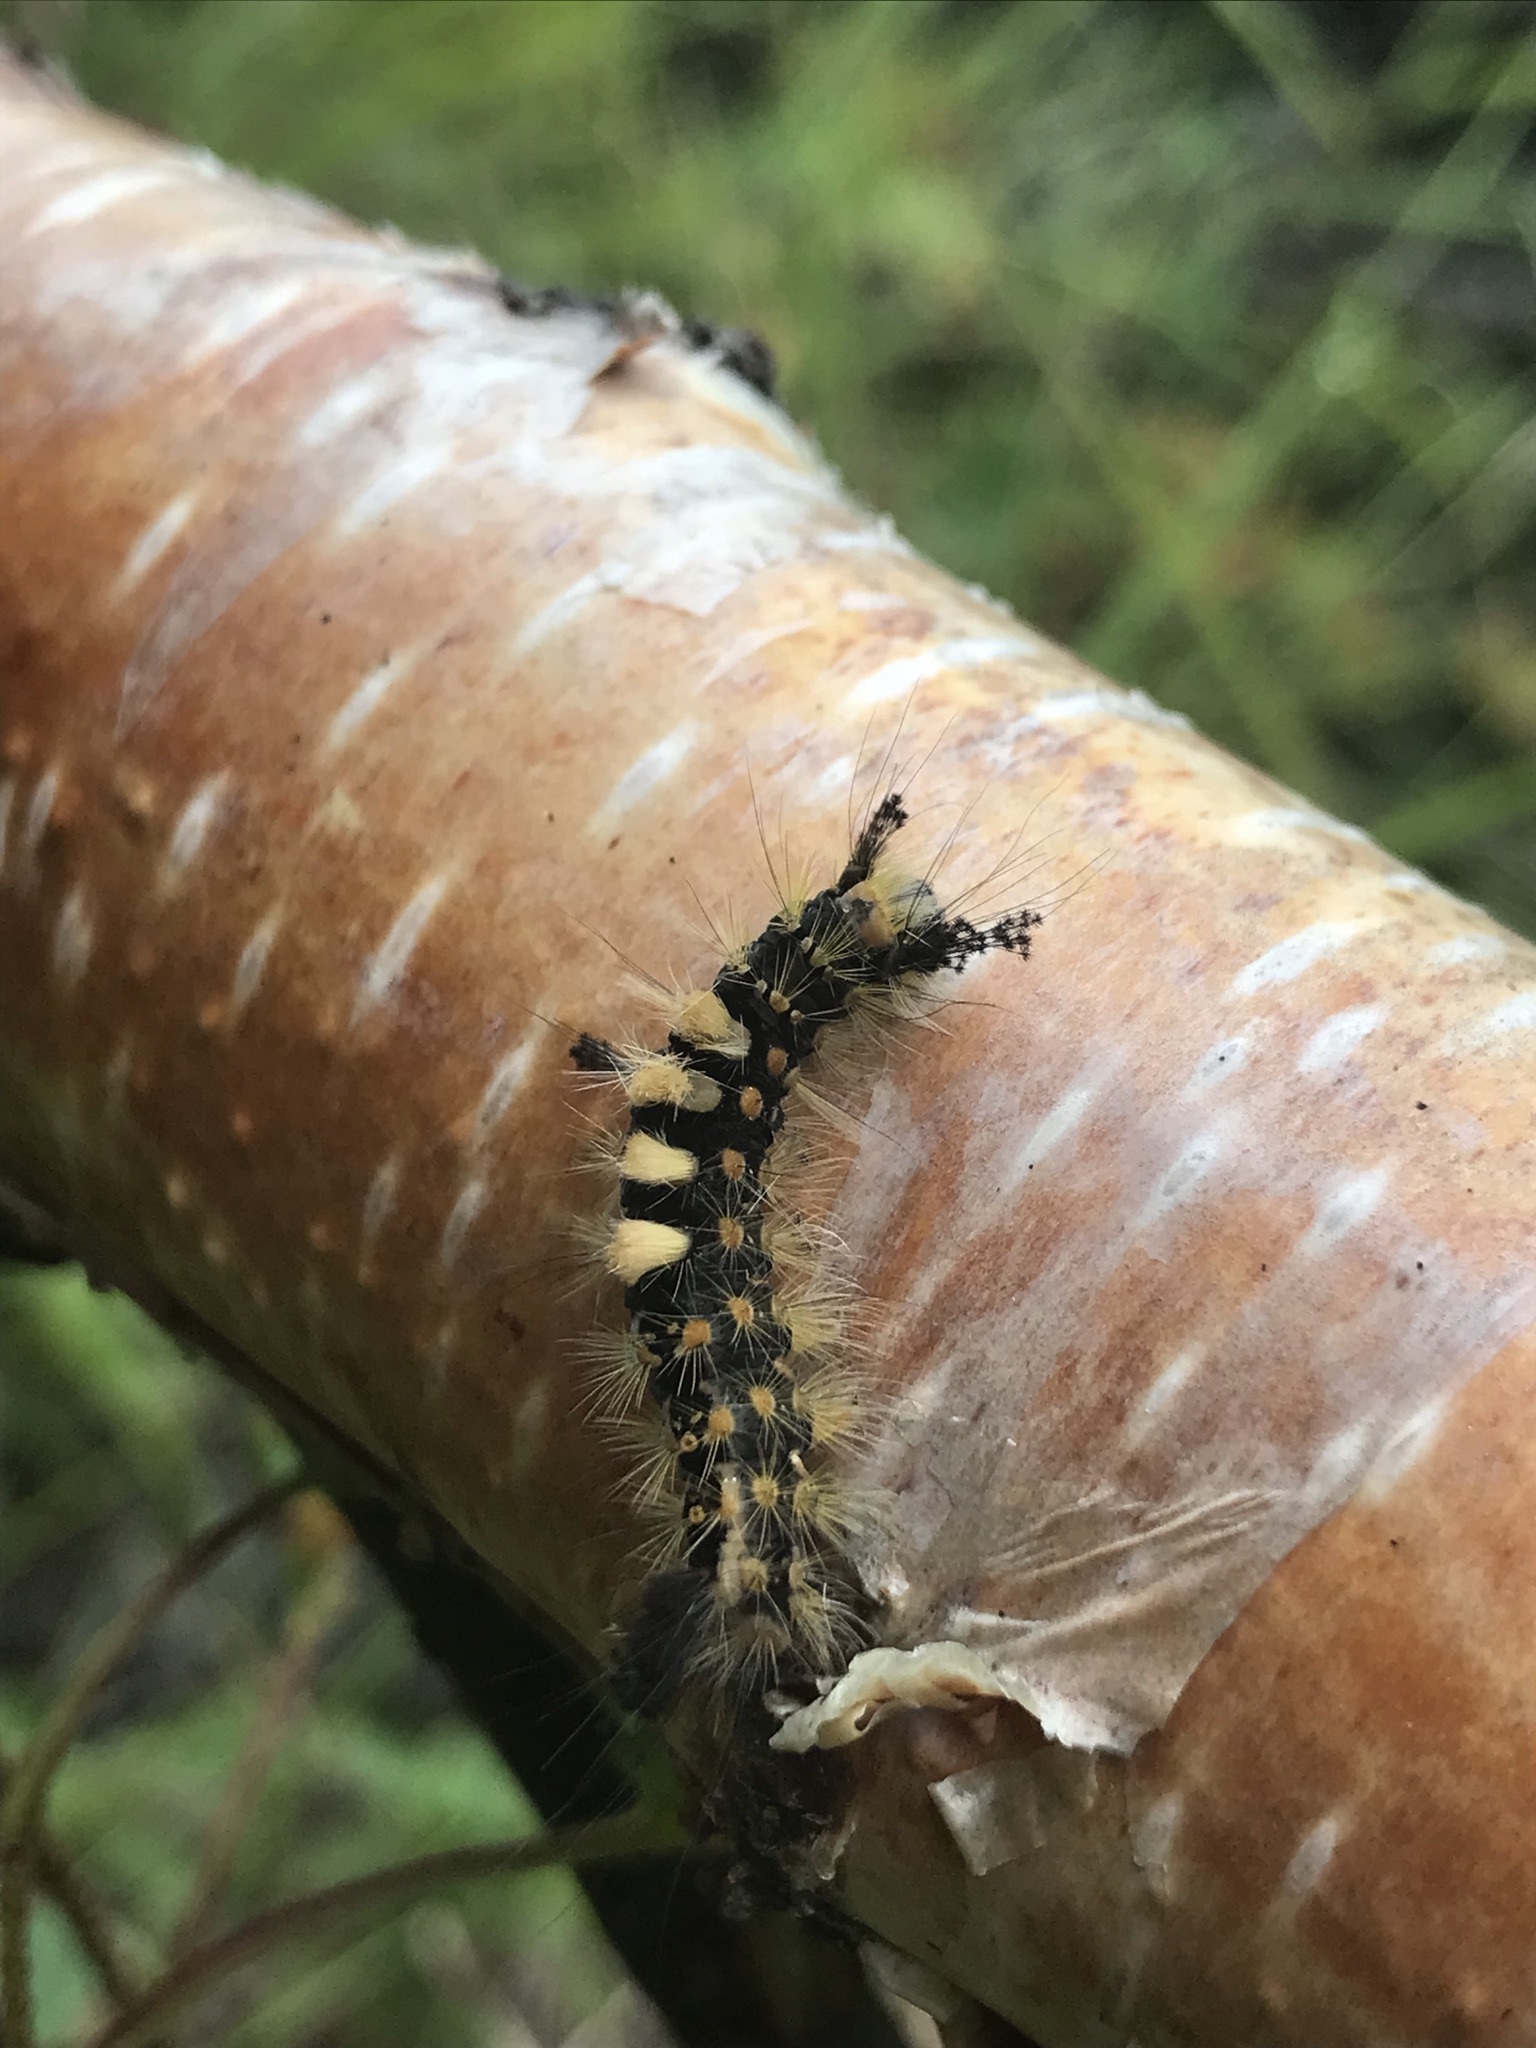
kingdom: Animalia
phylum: Arthropoda
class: Insecta
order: Lepidoptera
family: Erebidae
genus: Orgyia
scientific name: Orgyia antiqua
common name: Vapourer
